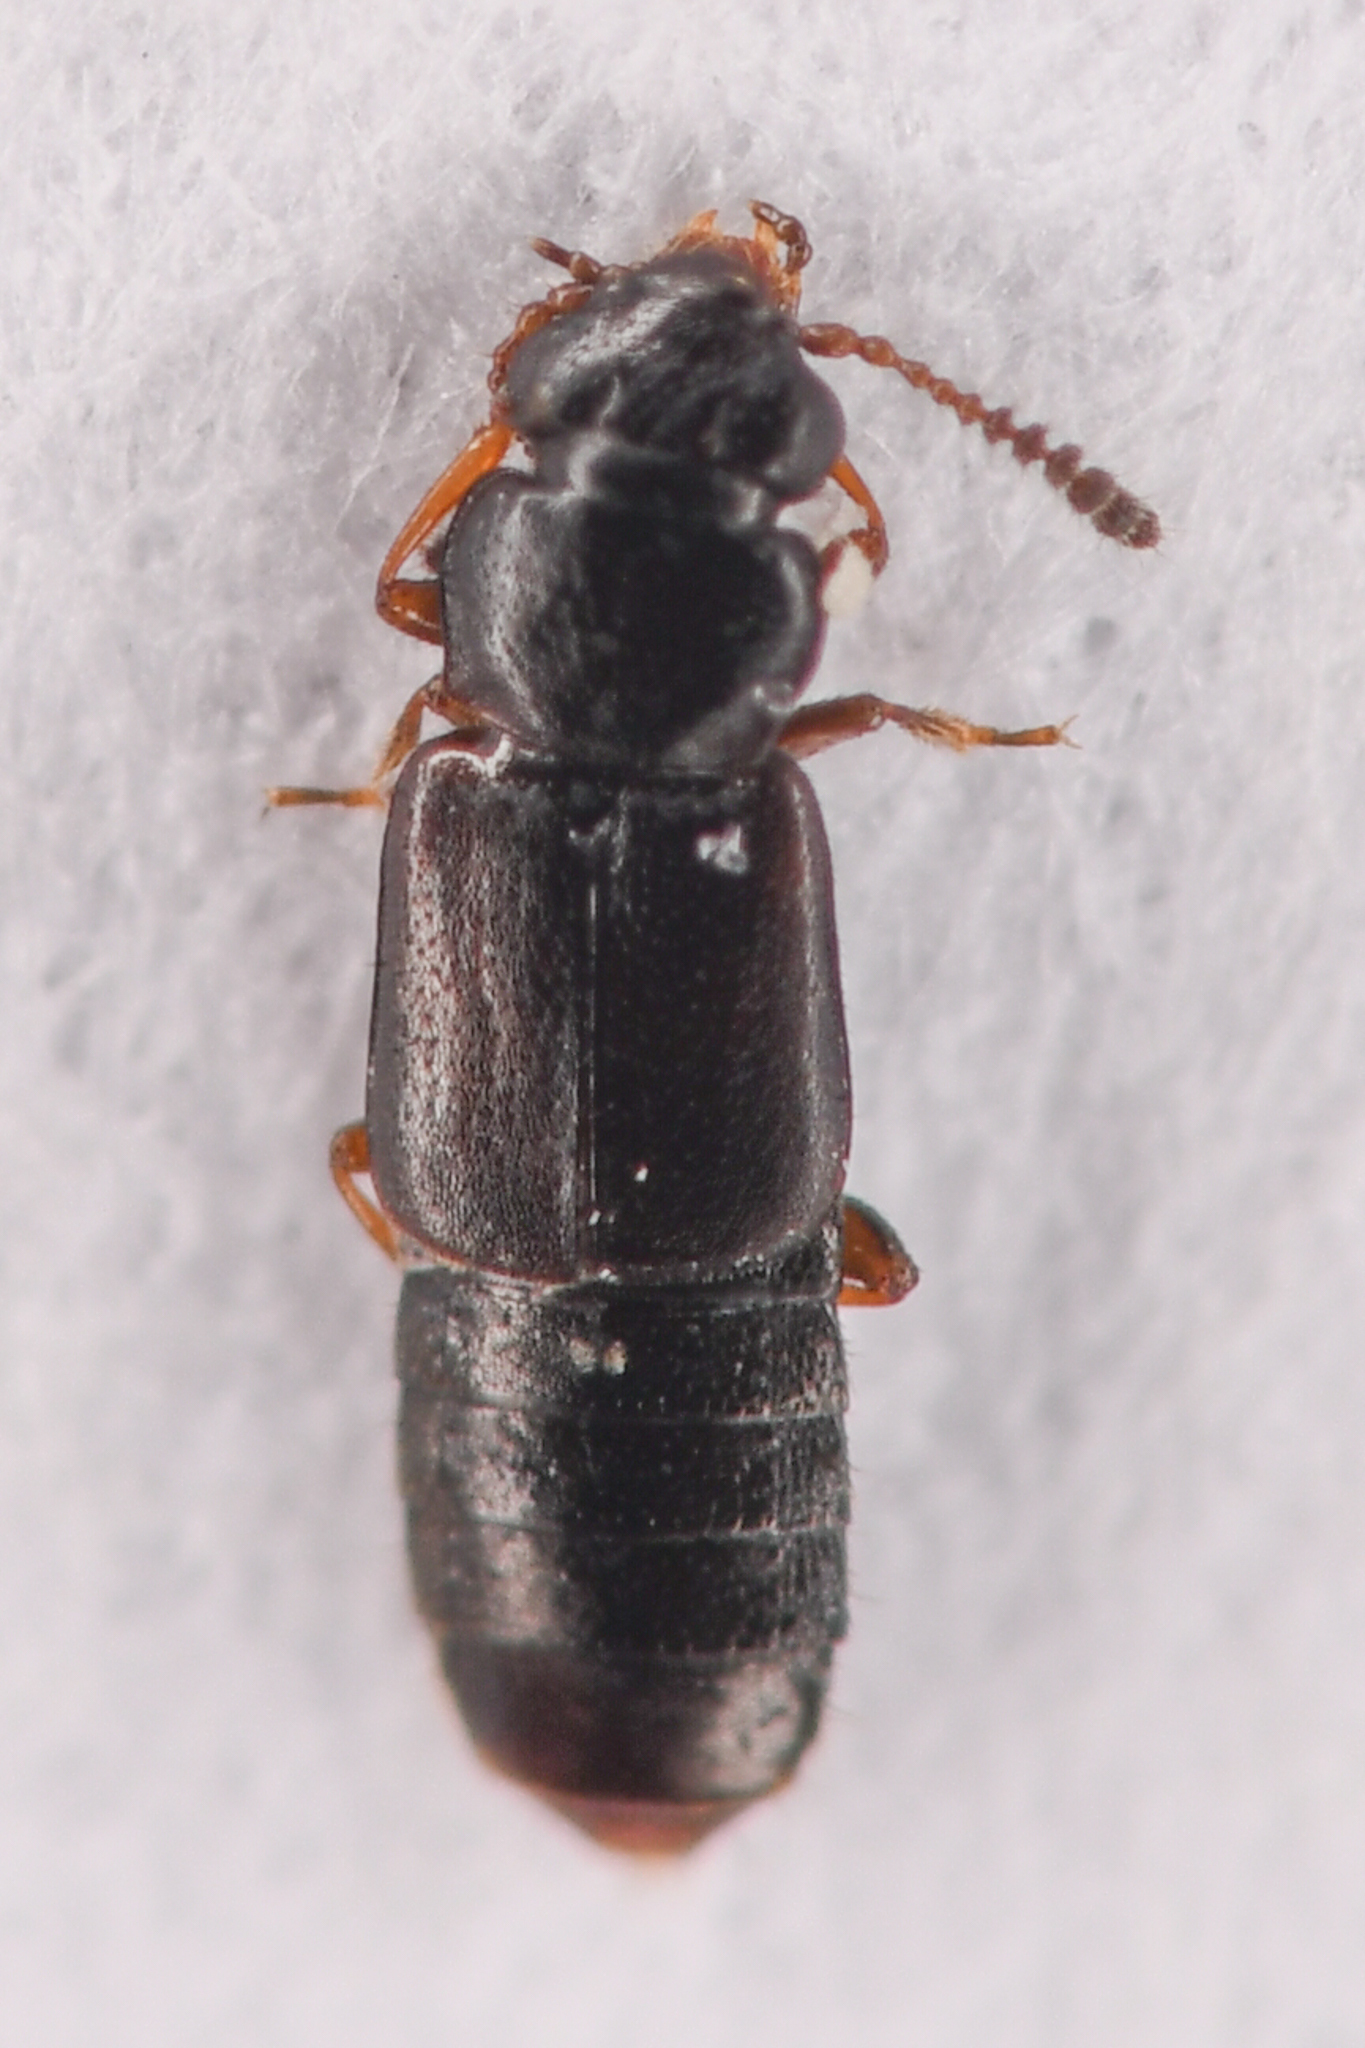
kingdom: Animalia
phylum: Arthropoda
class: Insecta
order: Coleoptera
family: Staphylinidae
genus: Phloeostiba
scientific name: Phloeostiba lapponica
